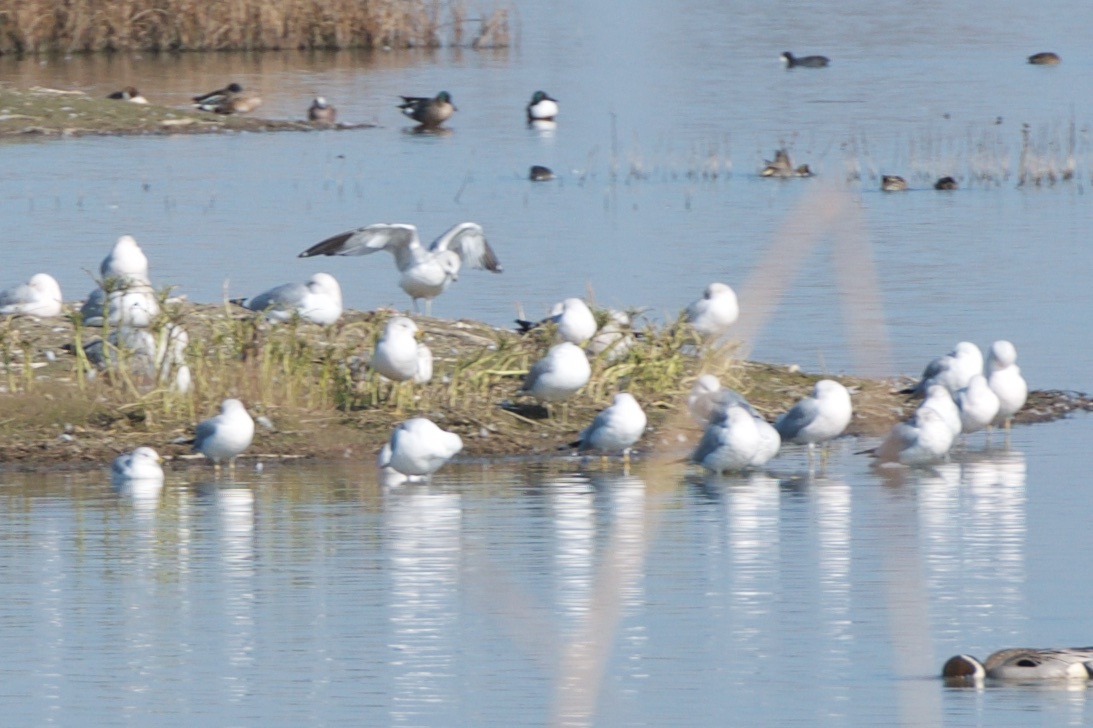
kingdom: Animalia
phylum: Chordata
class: Aves
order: Charadriiformes
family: Laridae
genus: Larus
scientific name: Larus delawarensis
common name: Ring-billed gull
